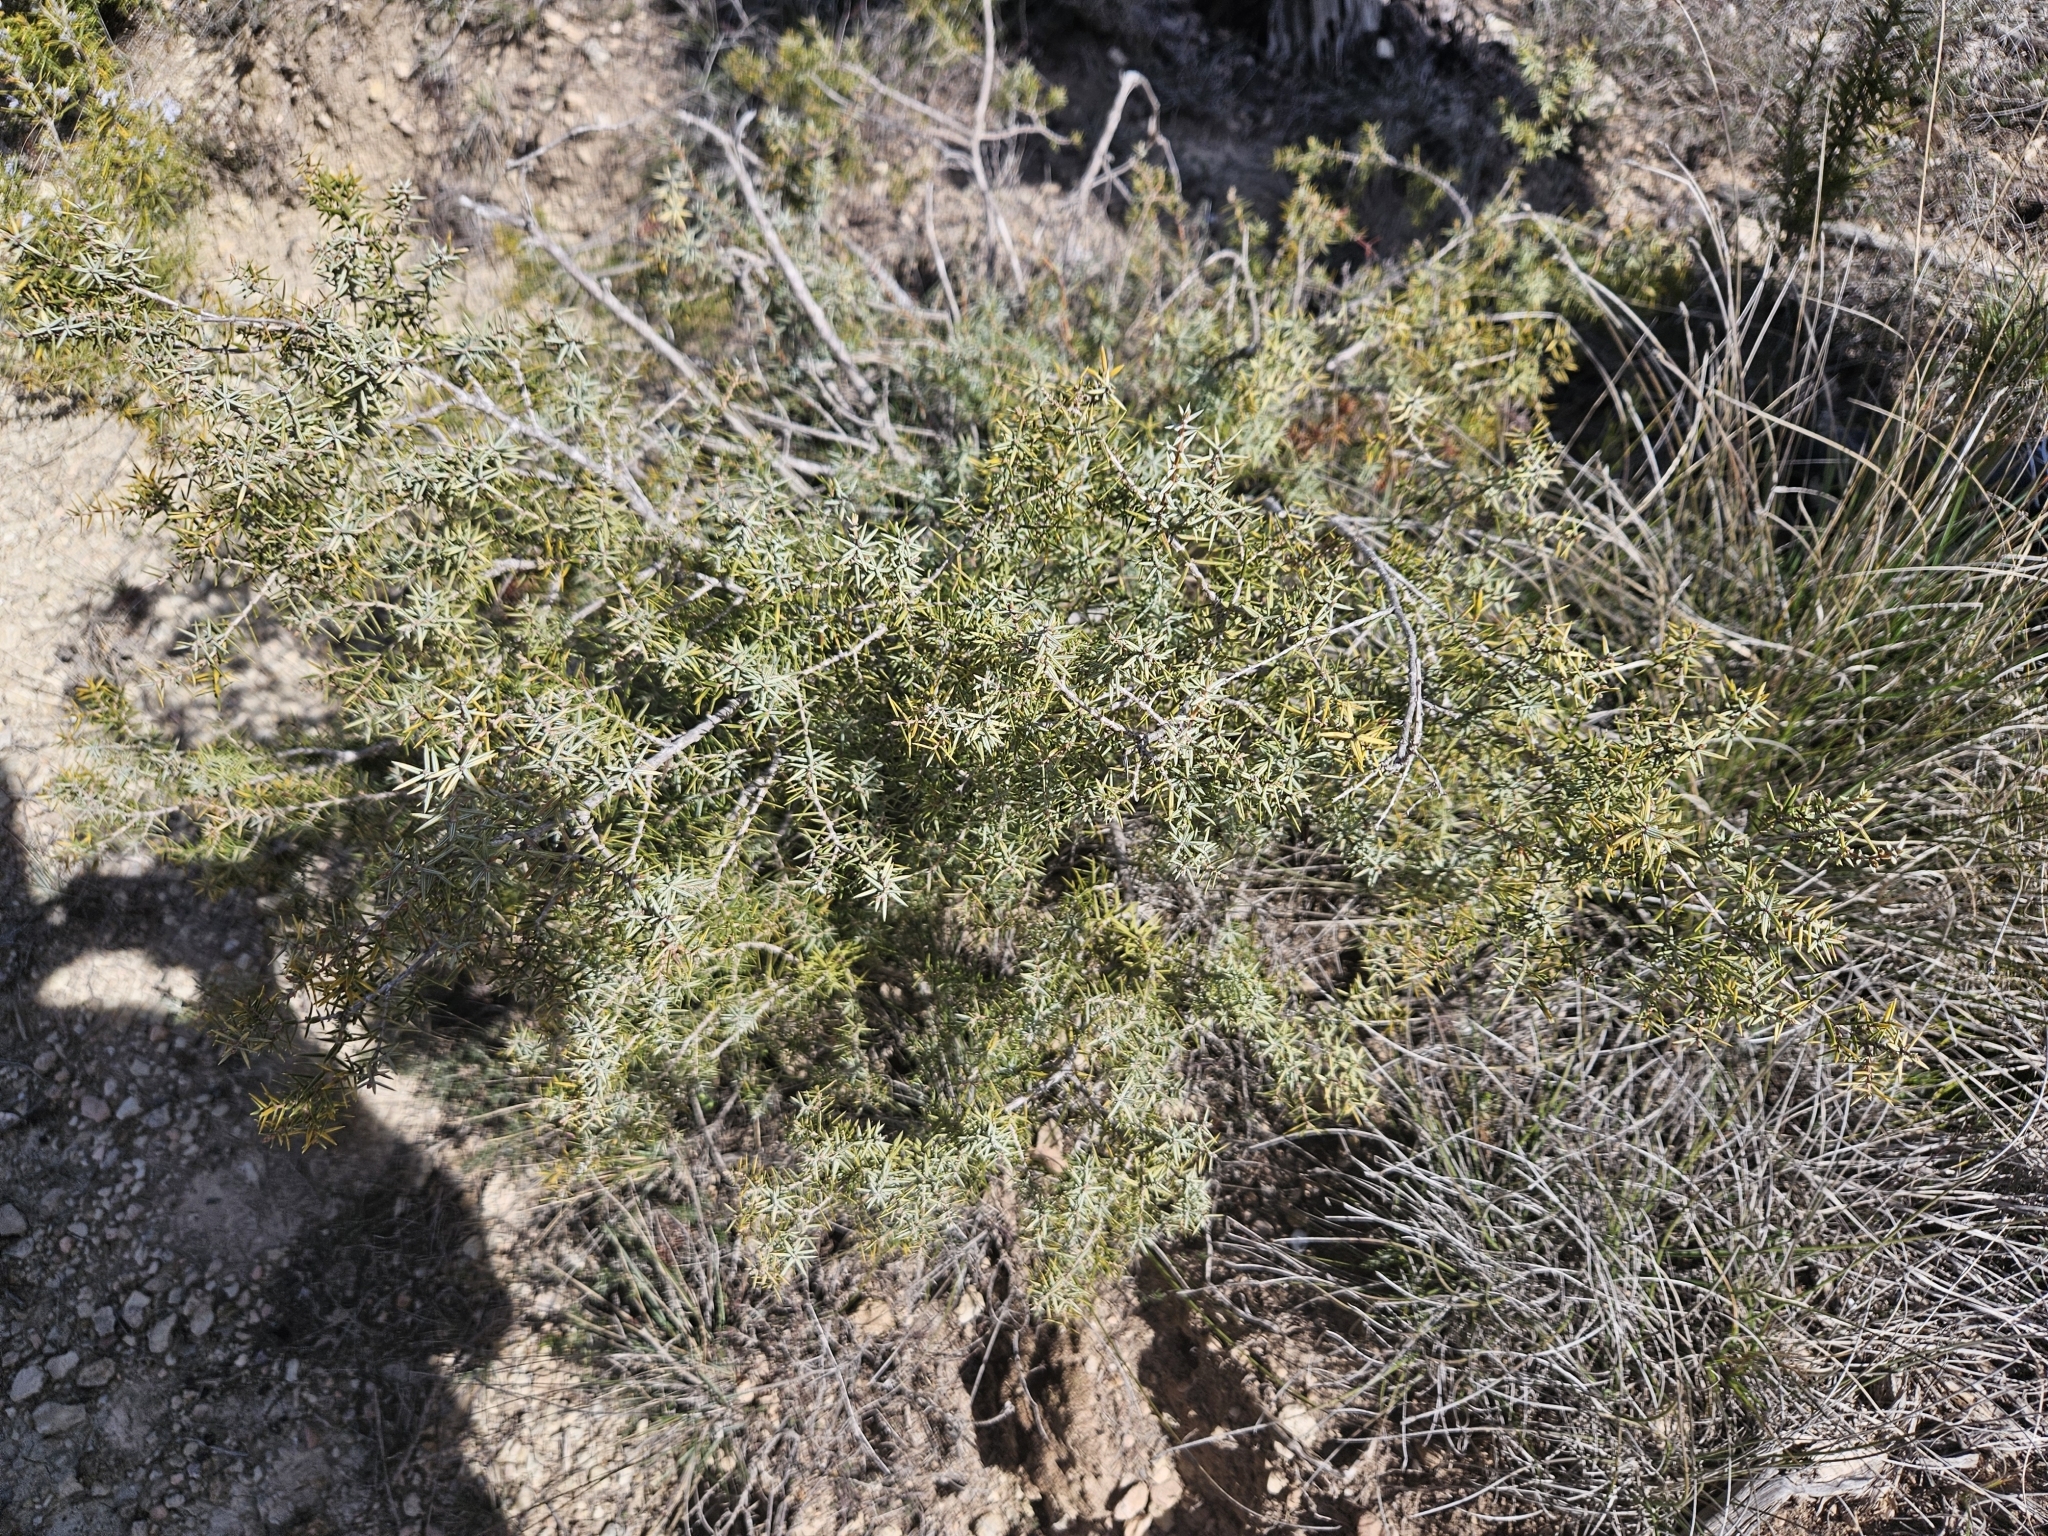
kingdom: Plantae
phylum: Tracheophyta
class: Pinopsida
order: Pinales
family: Cupressaceae
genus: Juniperus
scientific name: Juniperus oxycedrus
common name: Prickly juniper
